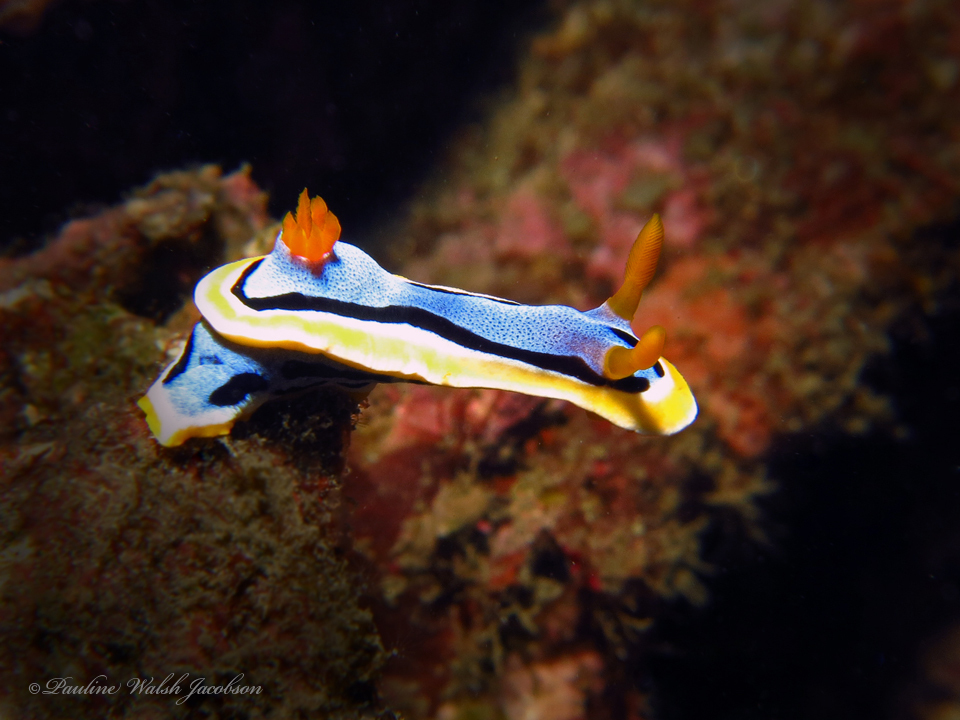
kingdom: Animalia
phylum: Mollusca
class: Gastropoda
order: Nudibranchia
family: Chromodorididae
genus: Chromodoris
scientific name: Chromodoris annae
